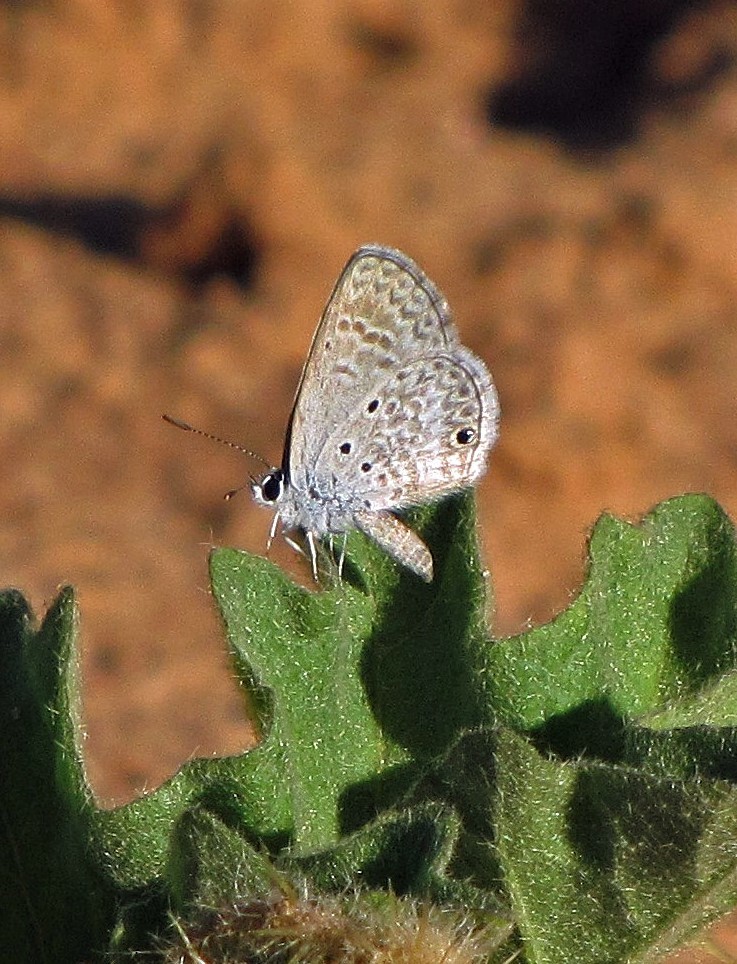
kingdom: Animalia
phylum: Arthropoda
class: Insecta
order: Lepidoptera
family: Lycaenidae
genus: Hemiargus
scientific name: Hemiargus hanno
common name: Common blue
